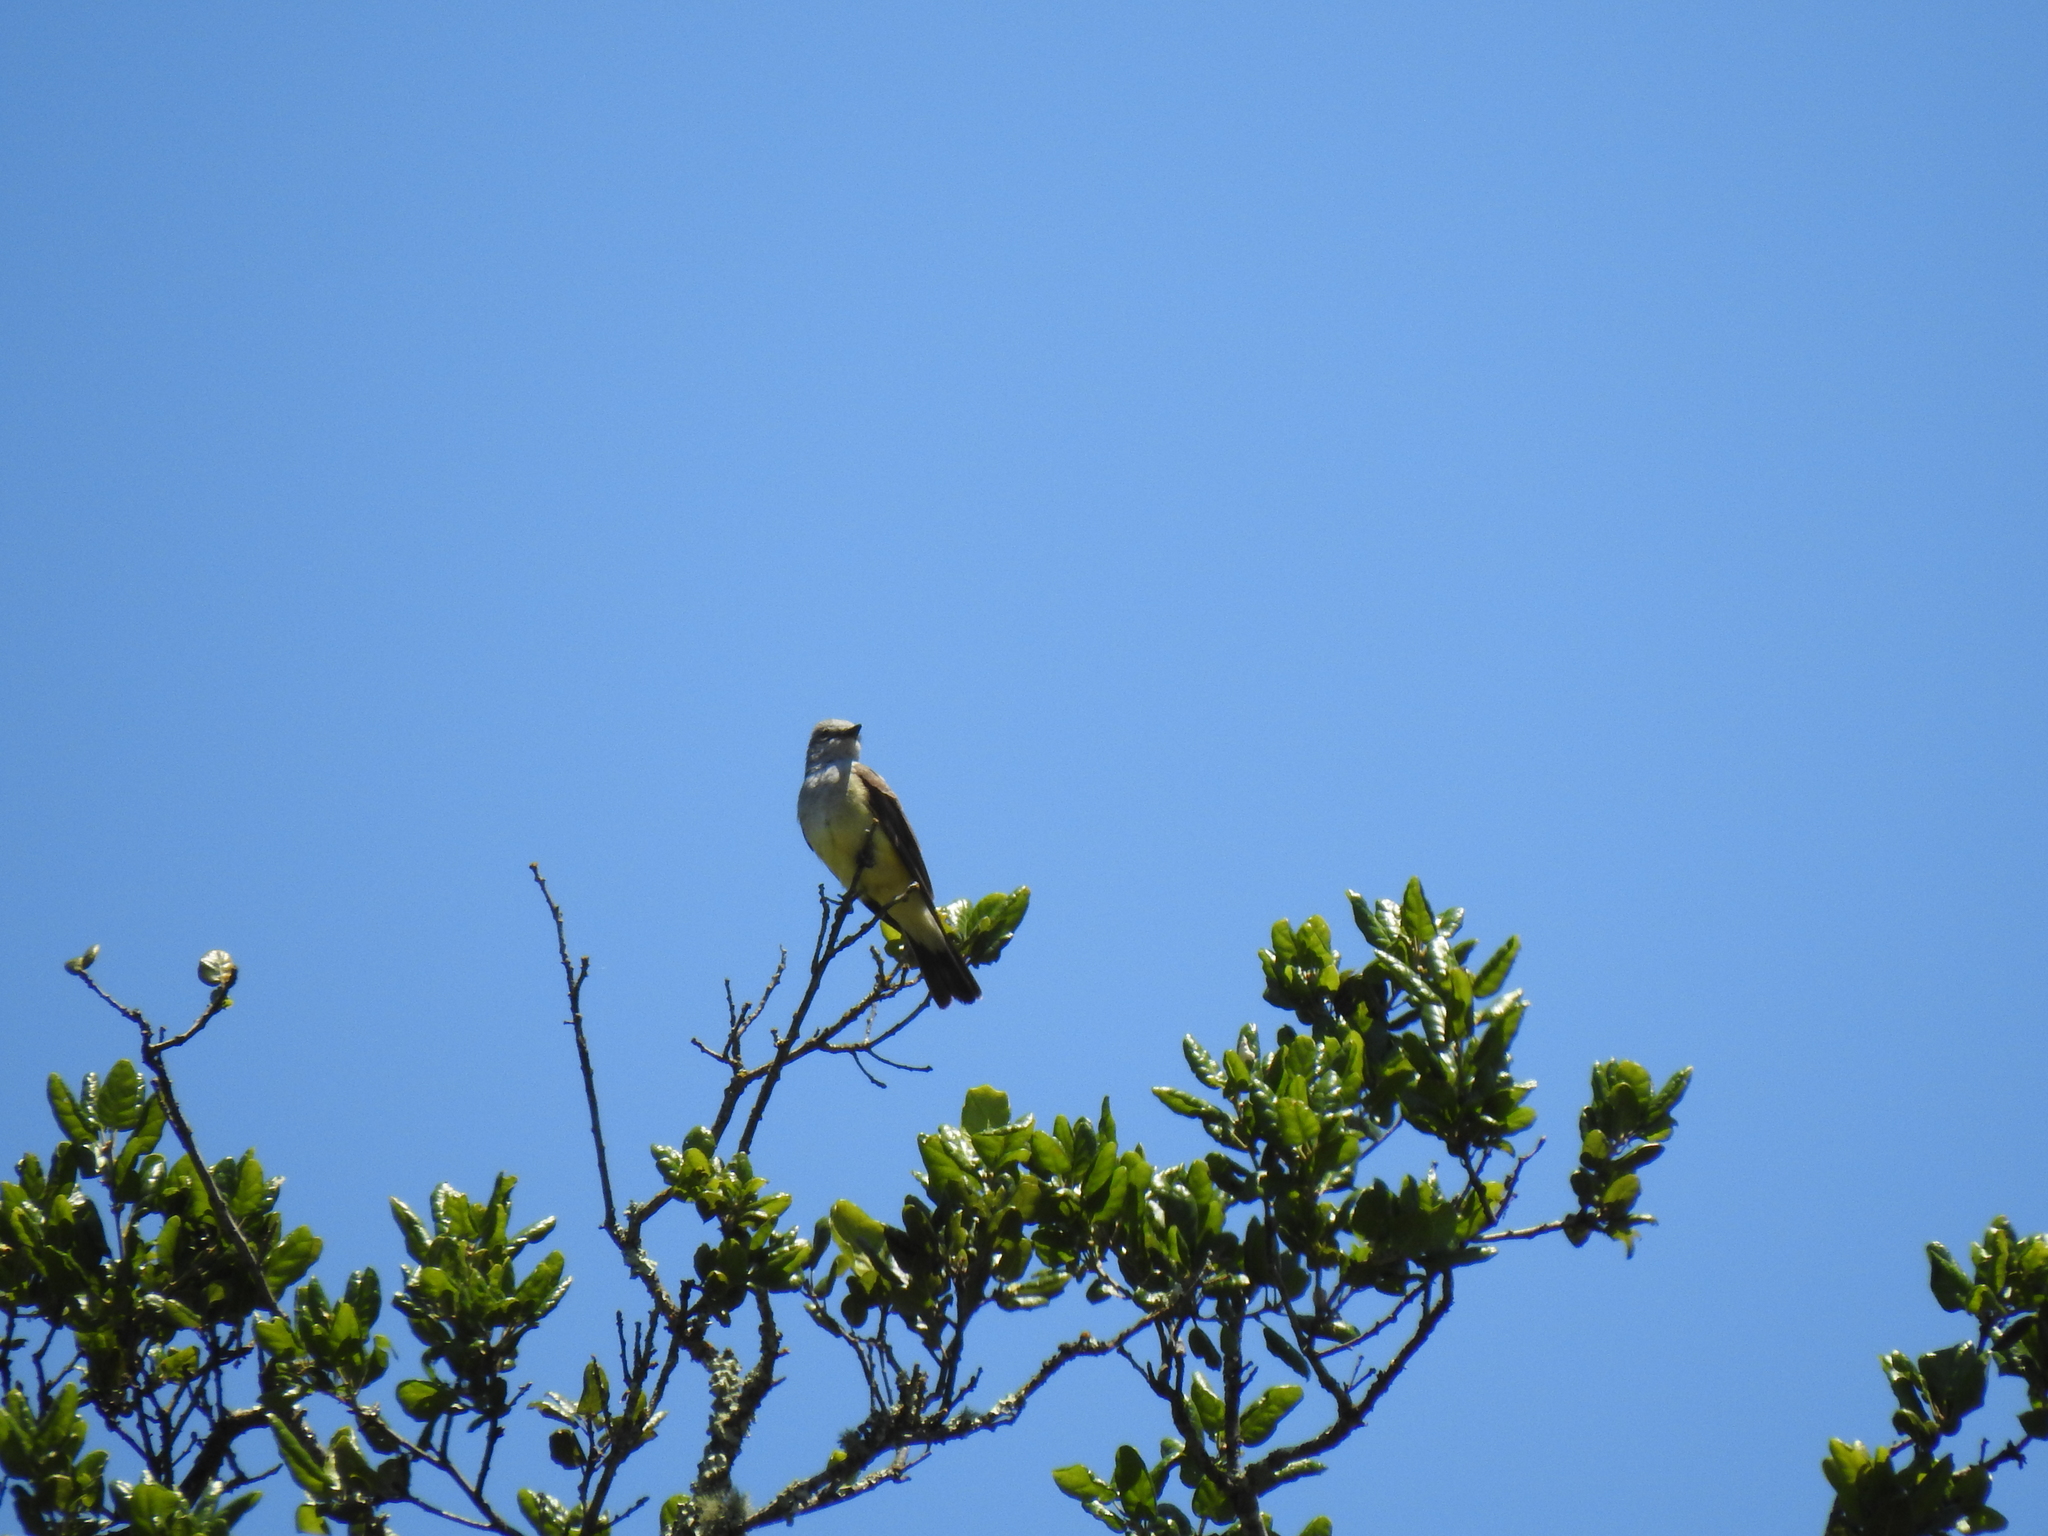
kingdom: Animalia
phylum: Chordata
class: Aves
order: Passeriformes
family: Tyrannidae
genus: Tyrannus
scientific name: Tyrannus verticalis
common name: Western kingbird
